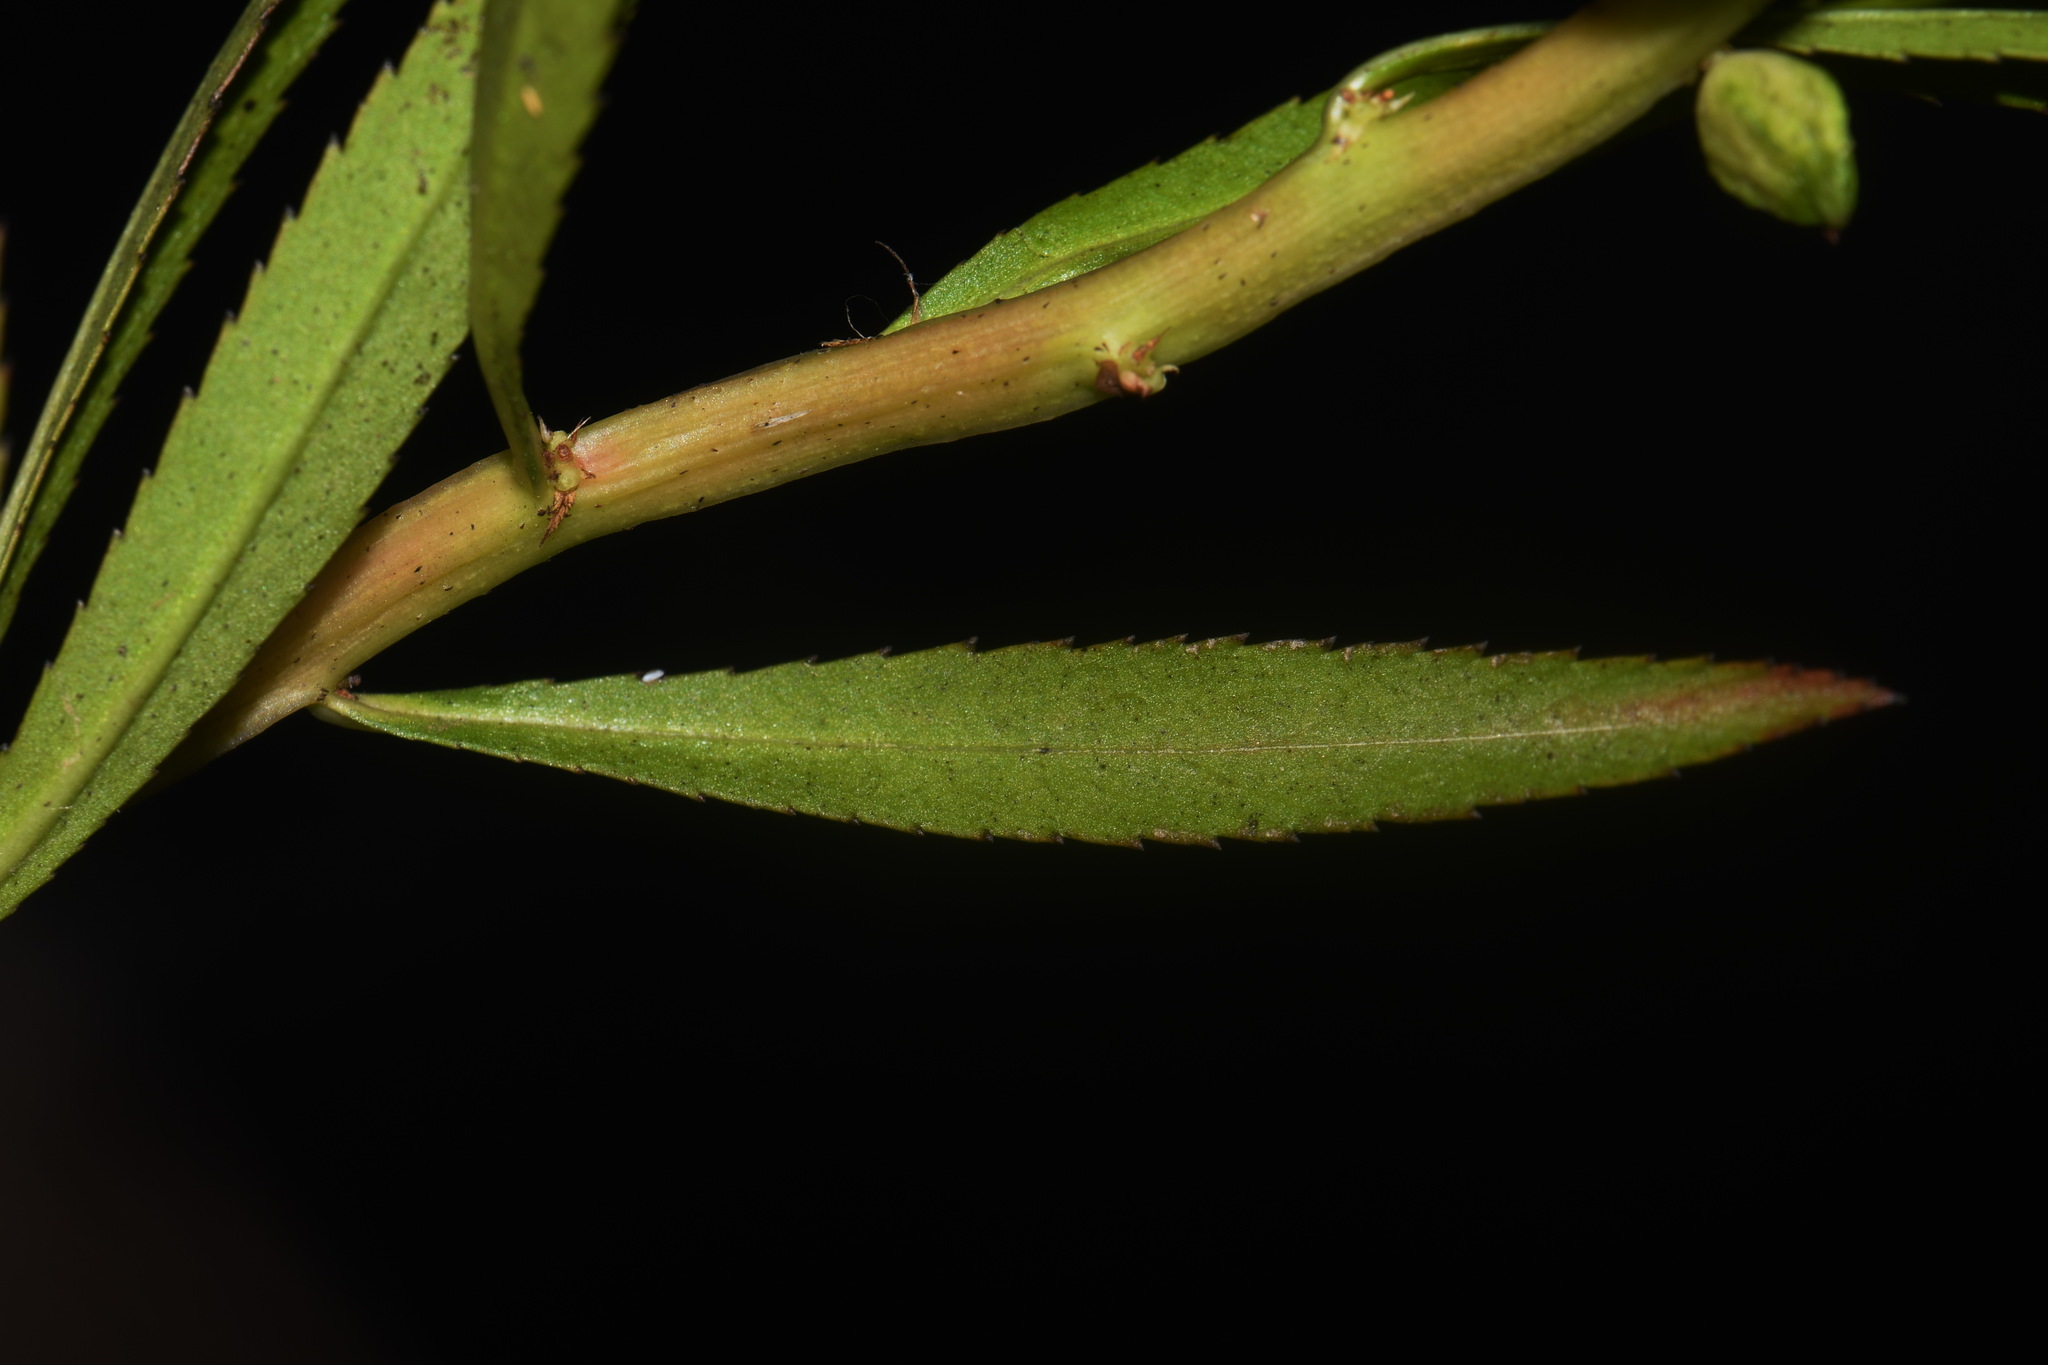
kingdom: Plantae
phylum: Tracheophyta
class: Magnoliopsida
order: Saxifragales
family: Haloragaceae
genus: Proserpinaca
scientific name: Proserpinaca palustris
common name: Marsh mermaidweed
